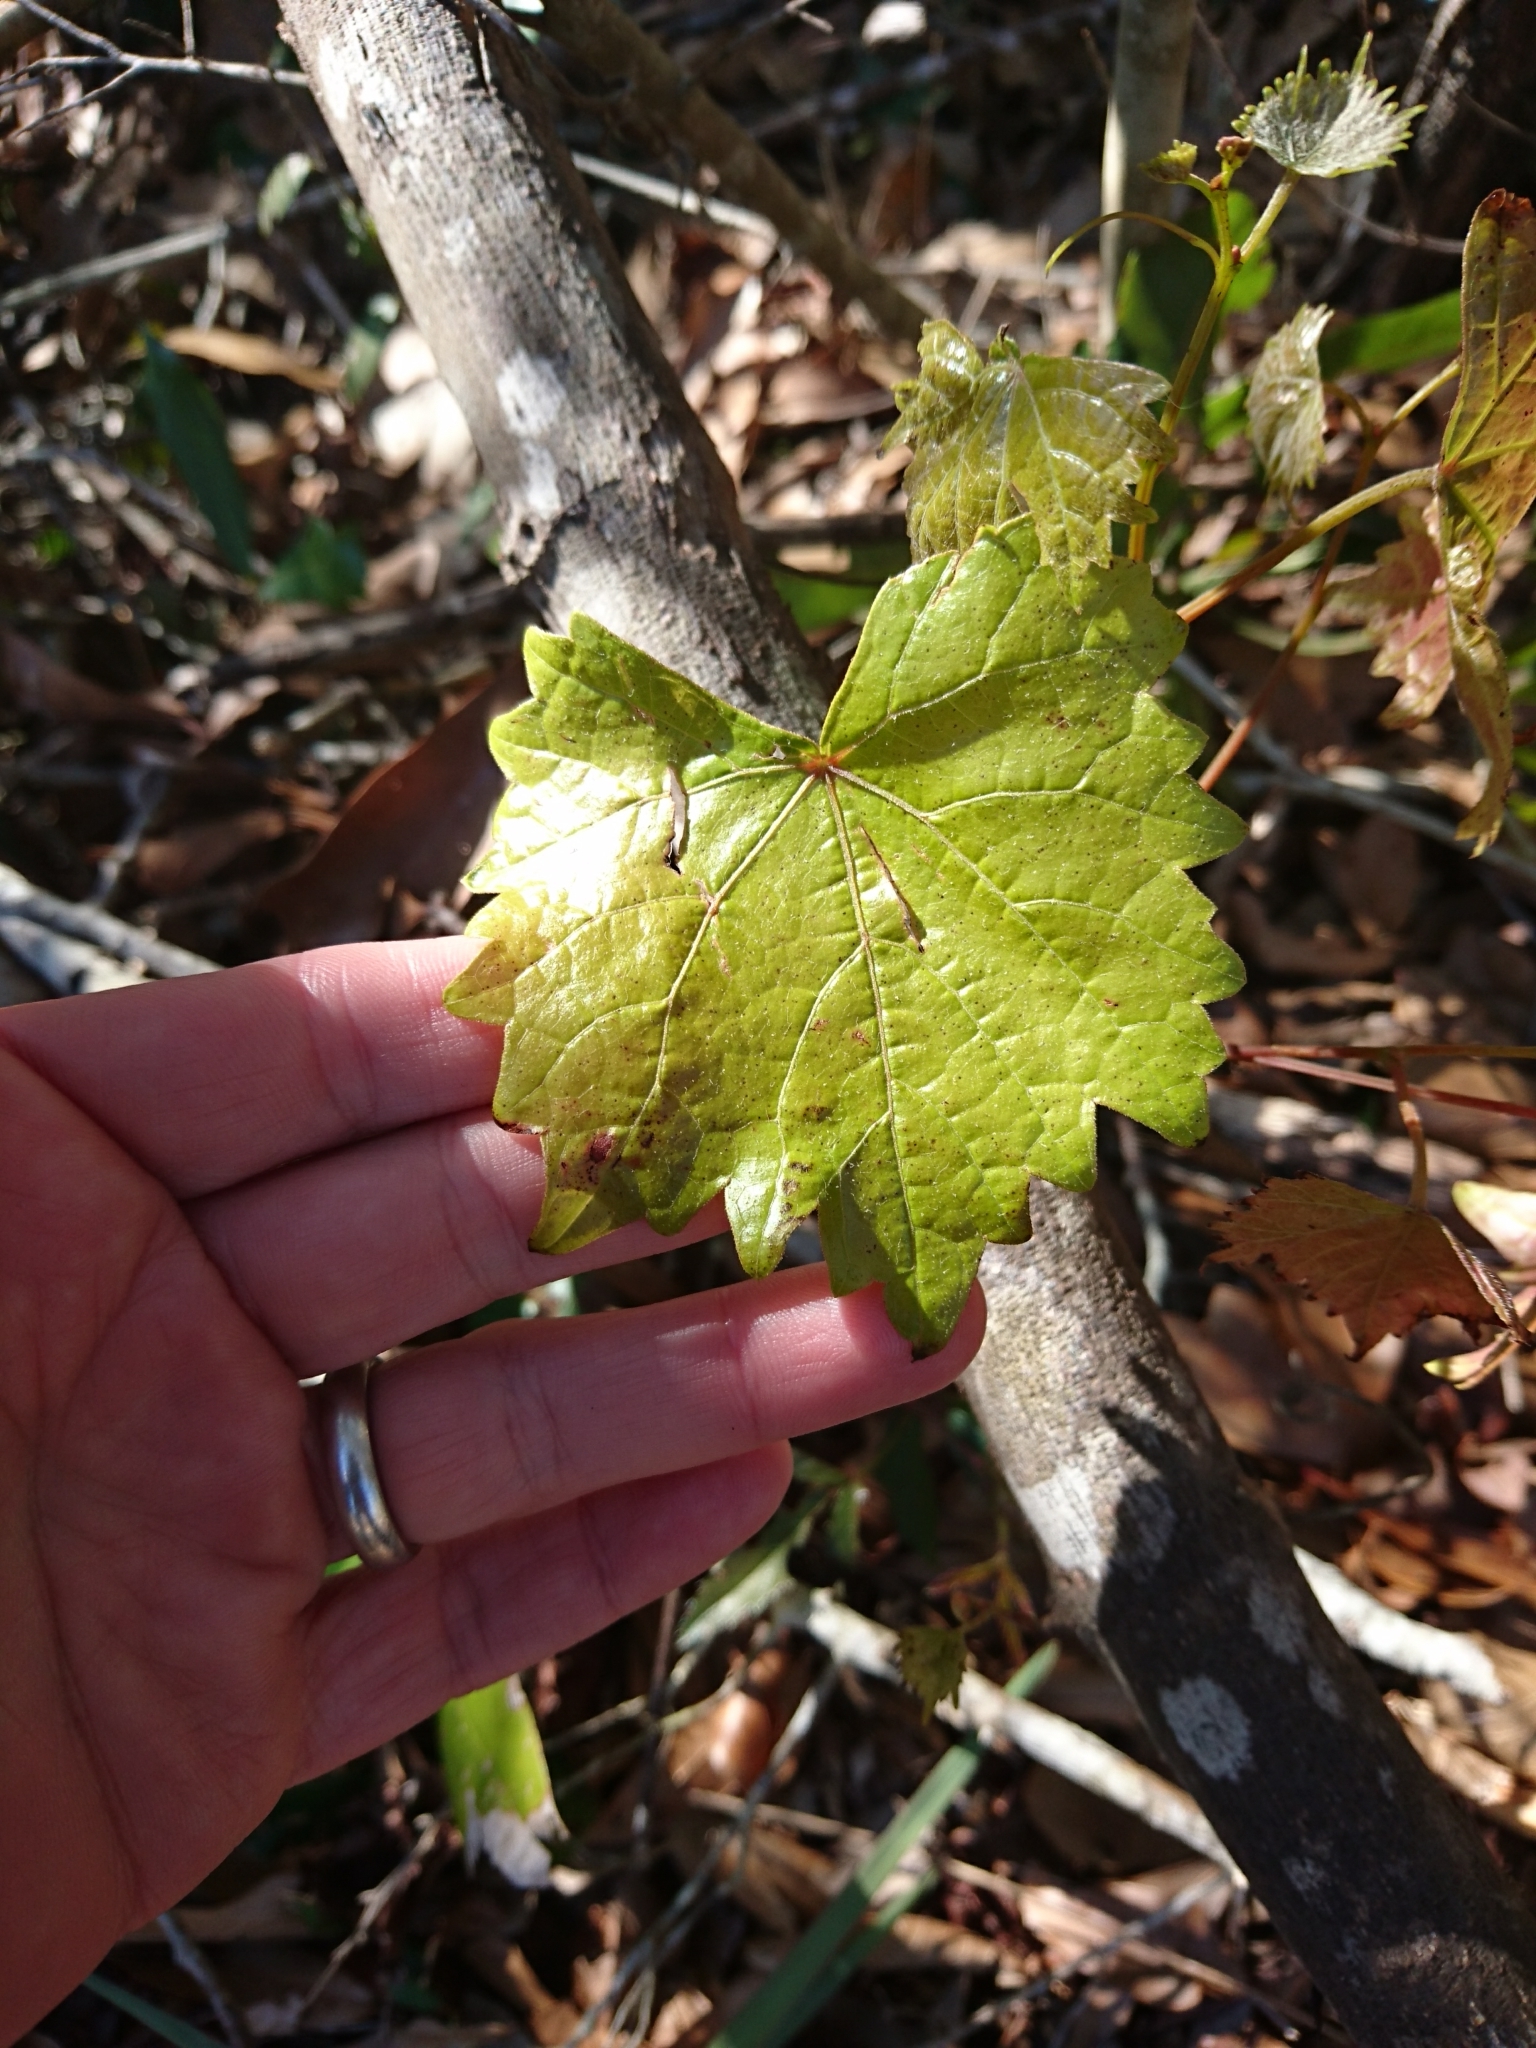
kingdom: Plantae
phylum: Tracheophyta
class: Magnoliopsida
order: Vitales
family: Vitaceae
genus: Vitis
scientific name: Vitis rotundifolia
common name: Muscadine grape
